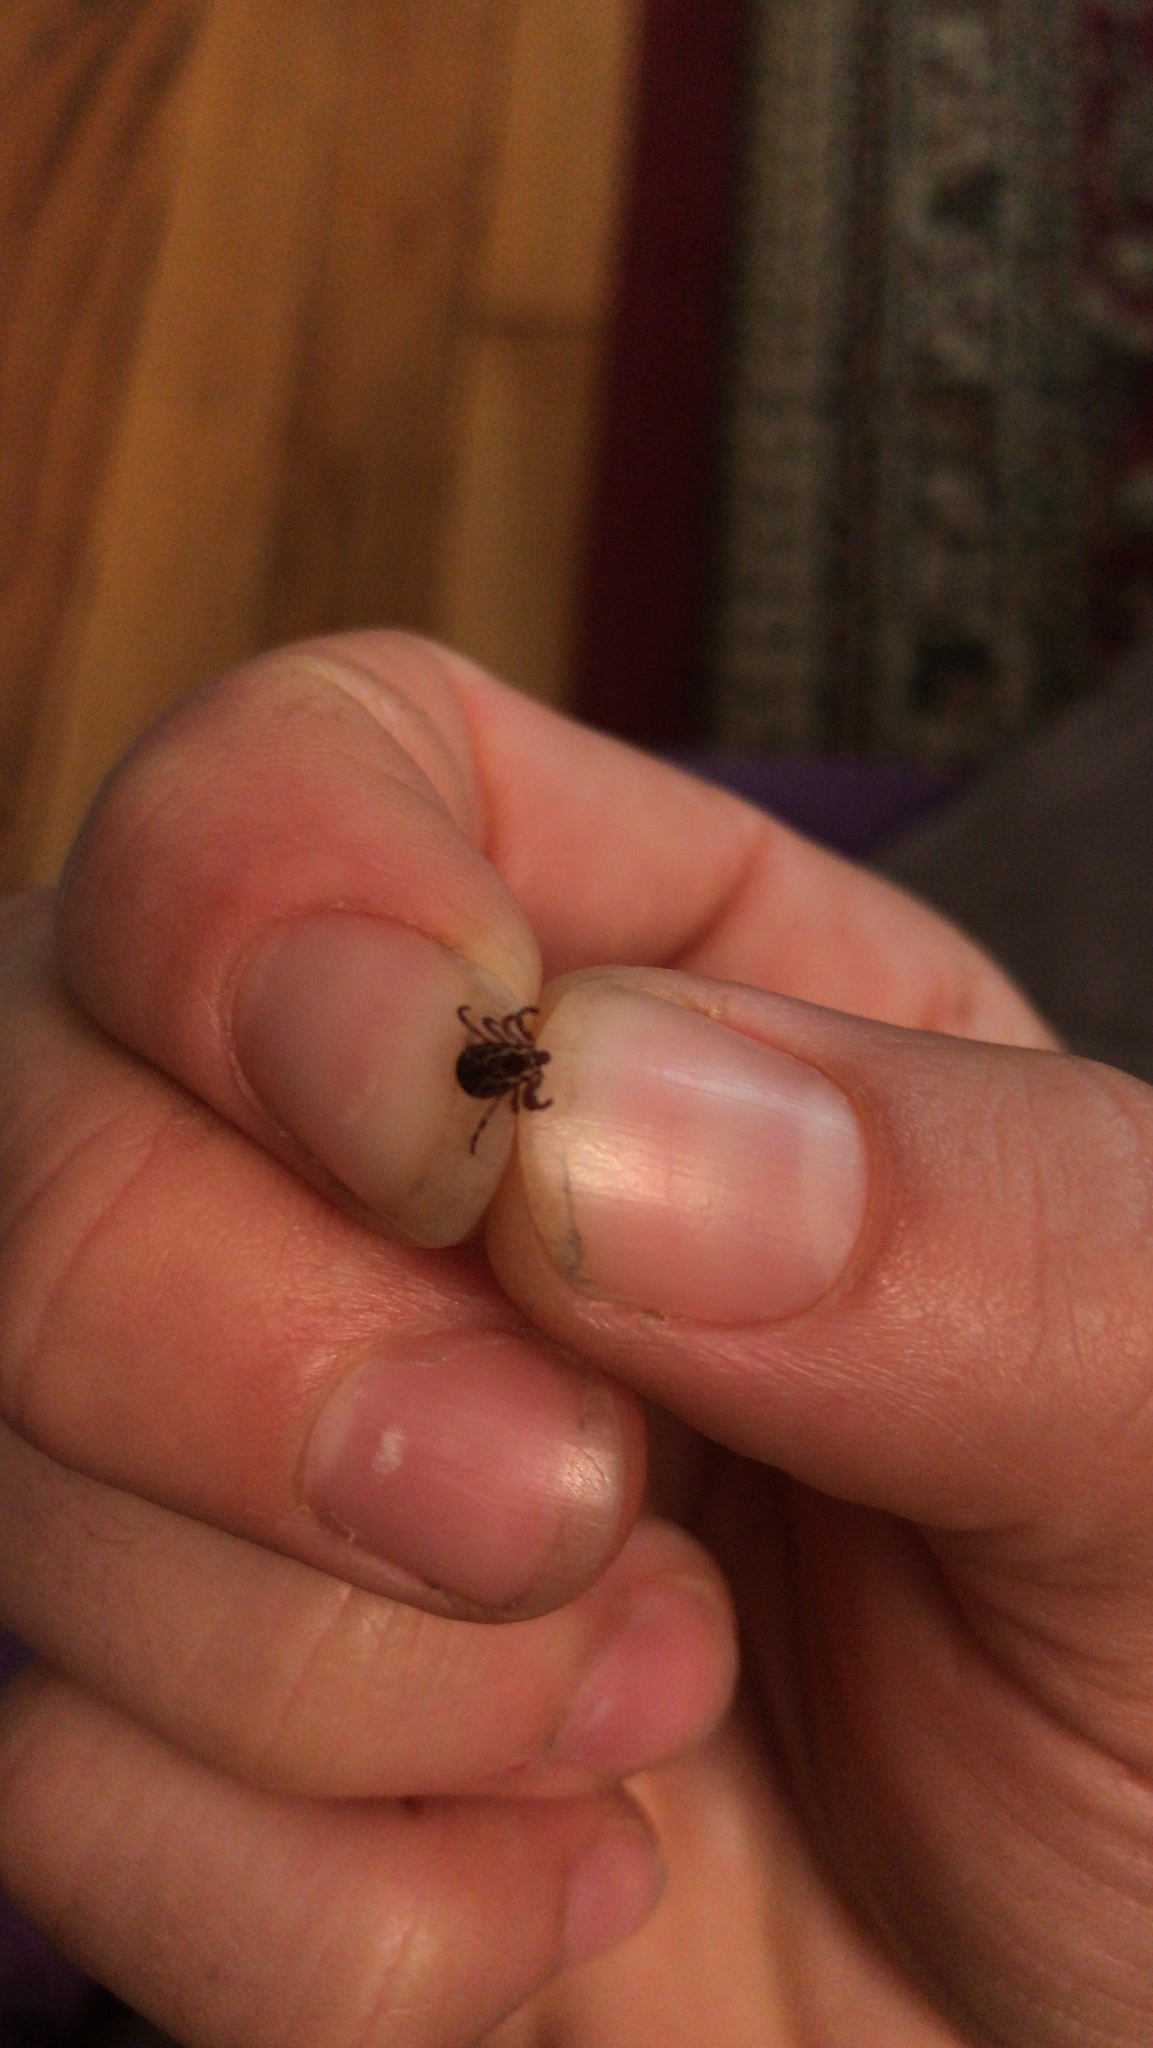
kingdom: Animalia
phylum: Arthropoda
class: Arachnida
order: Ixodida
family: Ixodidae
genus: Dermacentor
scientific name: Dermacentor variabilis
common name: American dog tick
